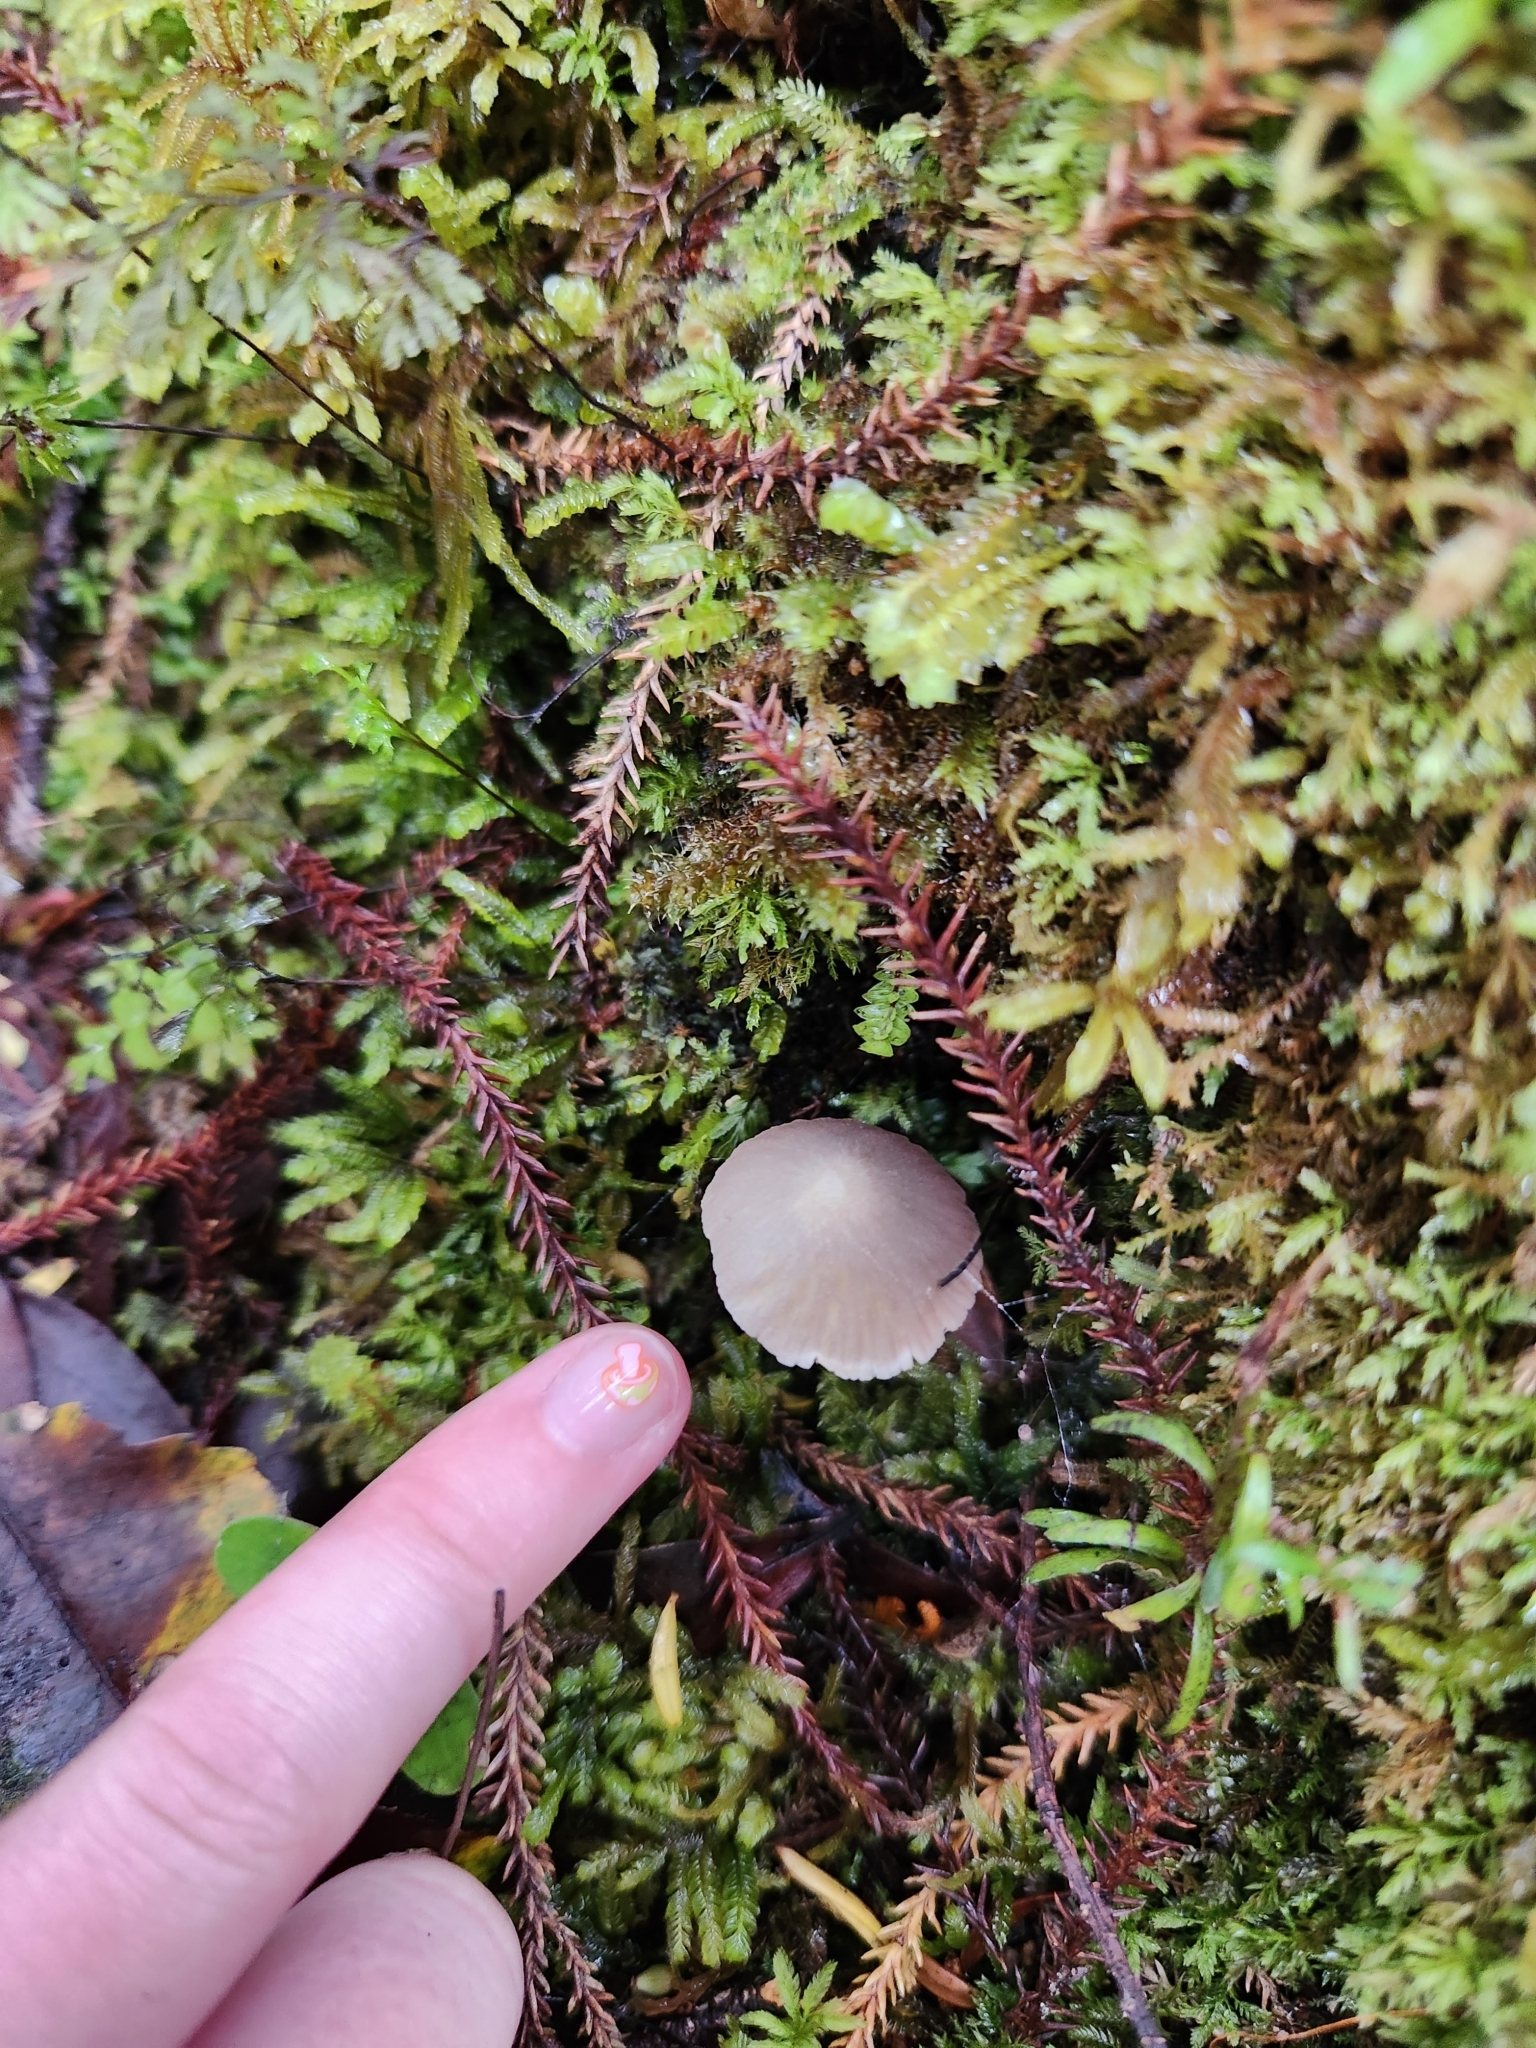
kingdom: Fungi
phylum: Basidiomycota
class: Agaricomycetes
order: Agaricales
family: Entolomataceae
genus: Entoloma
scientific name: Entoloma canoconicum
